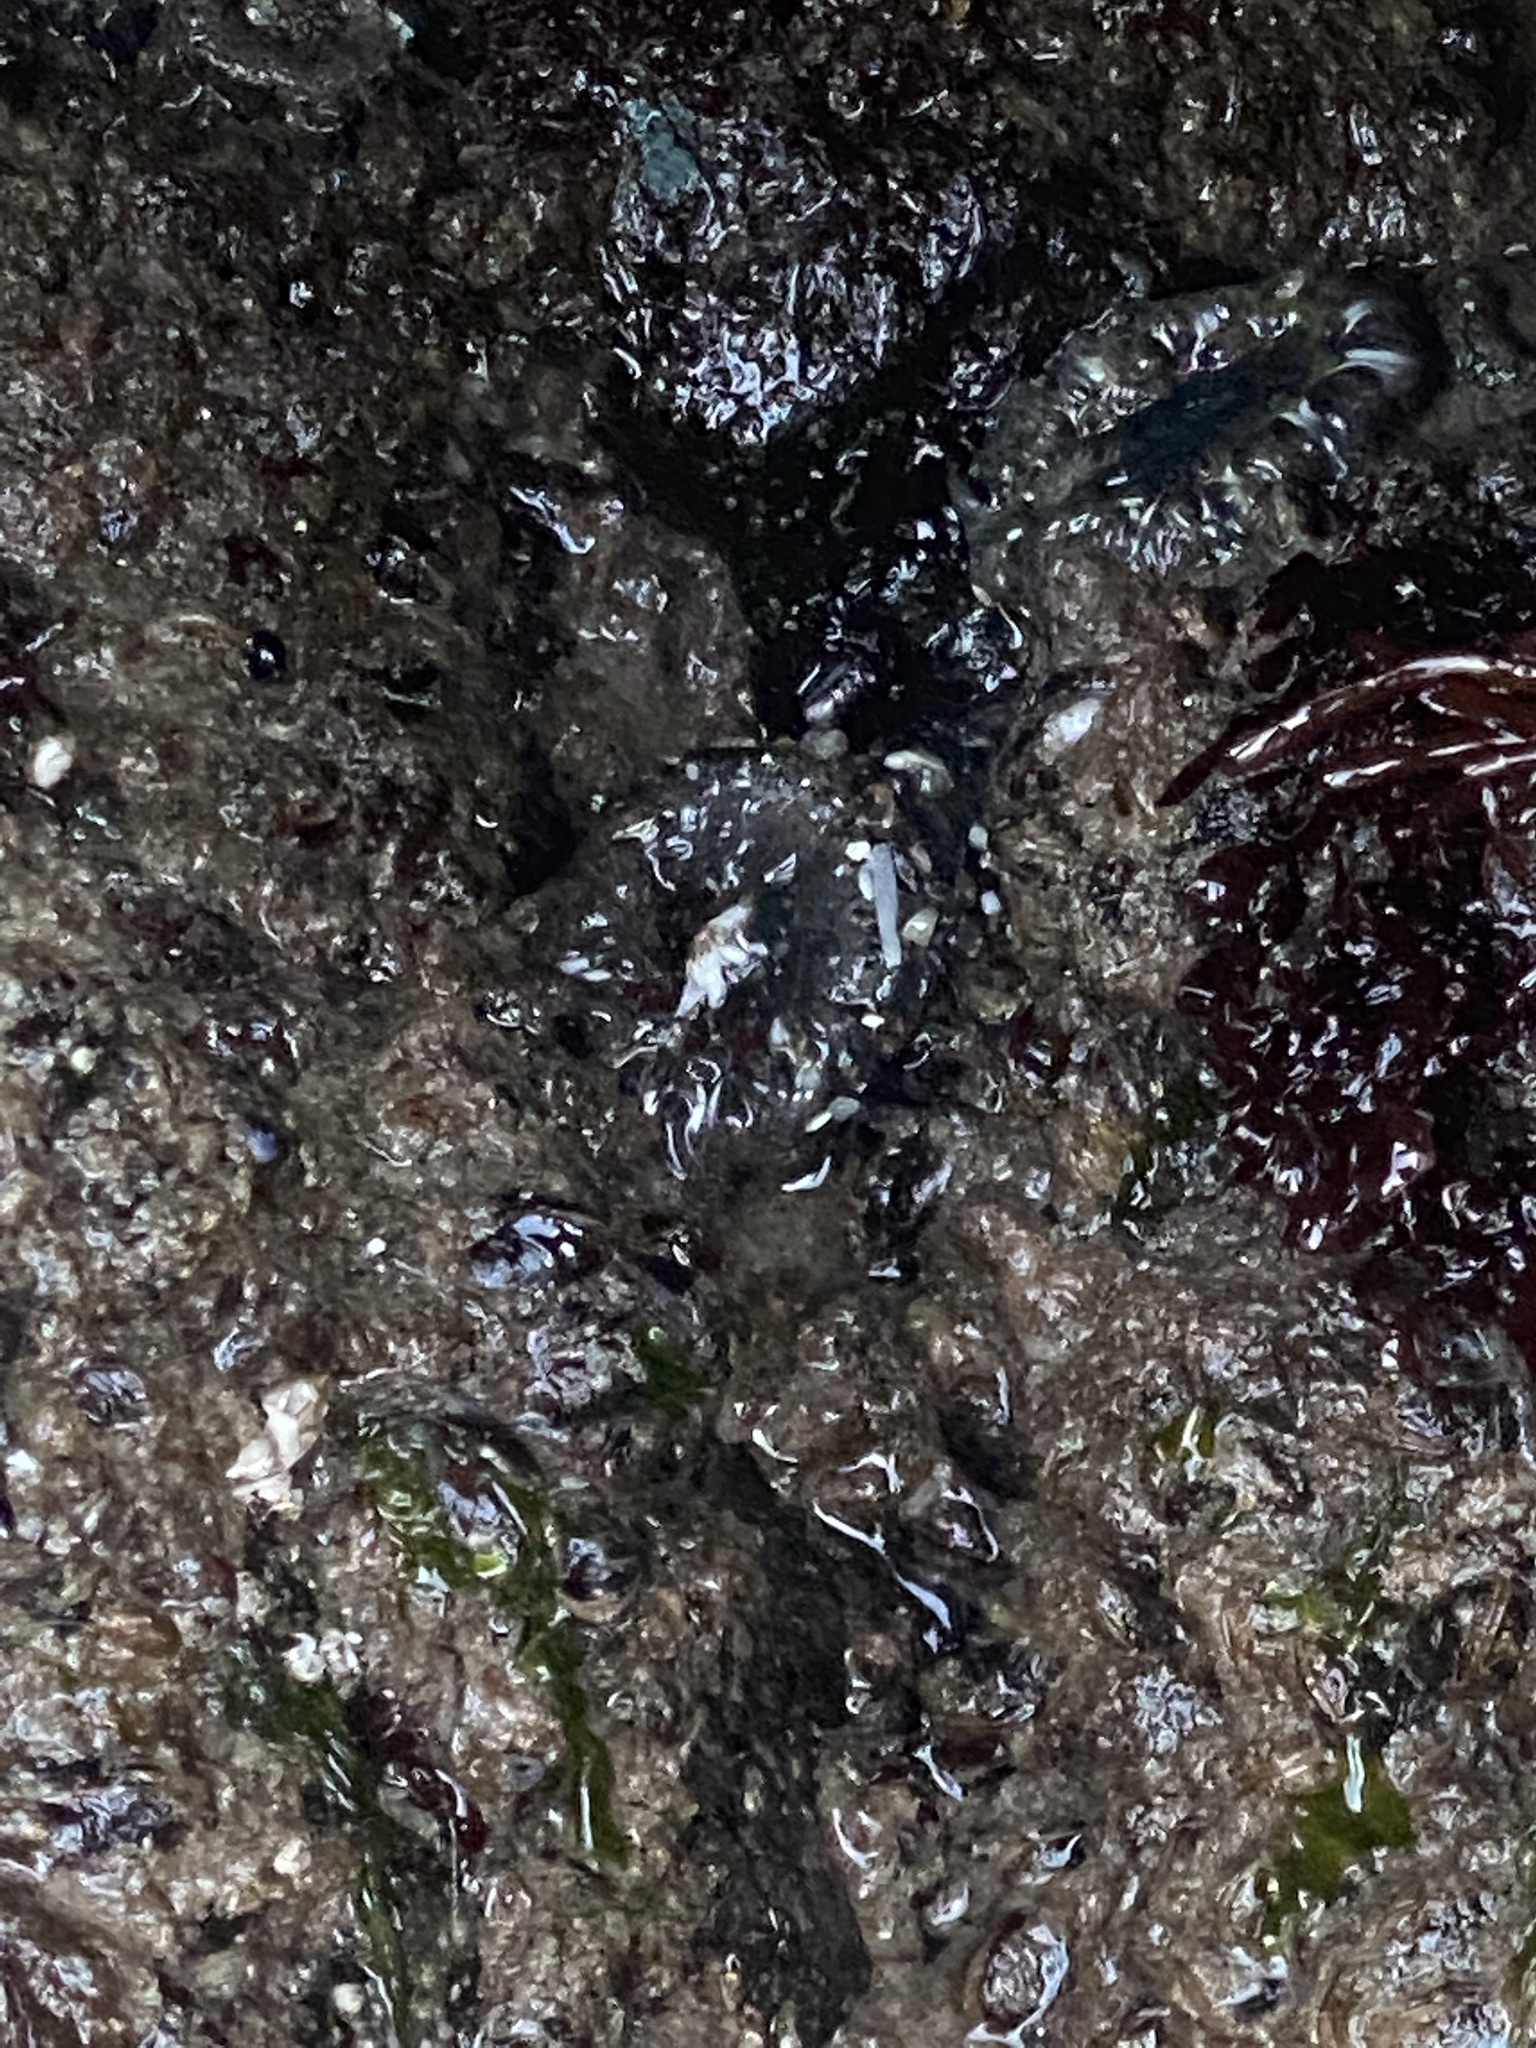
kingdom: Animalia
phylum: Cnidaria
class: Anthozoa
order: Actiniaria
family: Actiniidae
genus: Anthopleura
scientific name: Anthopleura elegantissima
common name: Clonal anemone
